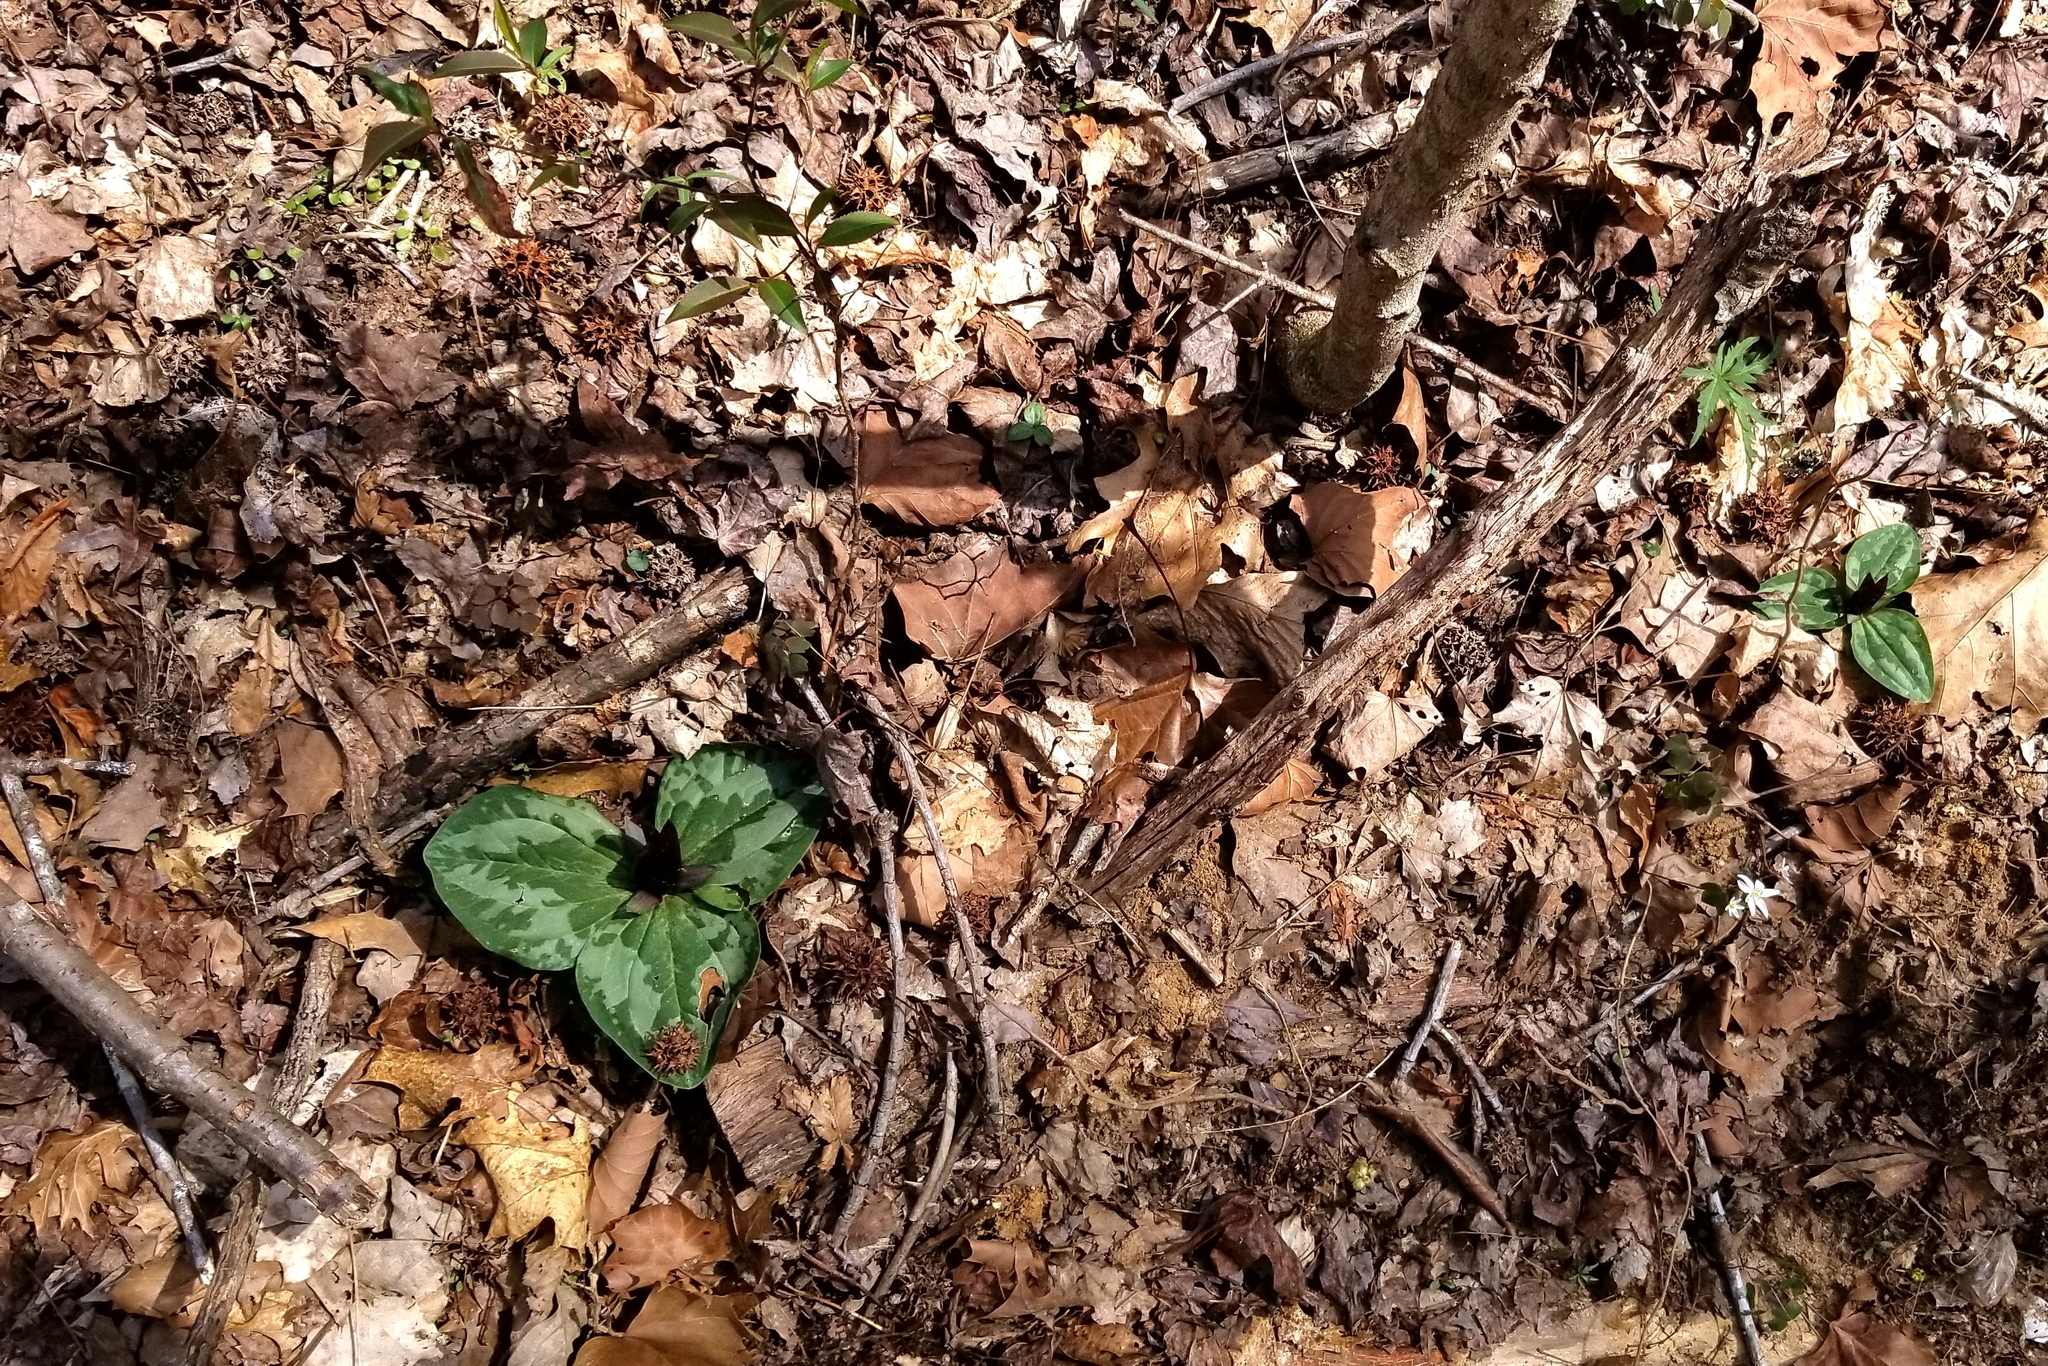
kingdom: Plantae
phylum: Tracheophyta
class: Liliopsida
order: Liliales
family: Melanthiaceae
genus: Trillium
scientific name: Trillium decumbens
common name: Decumbent trillium
